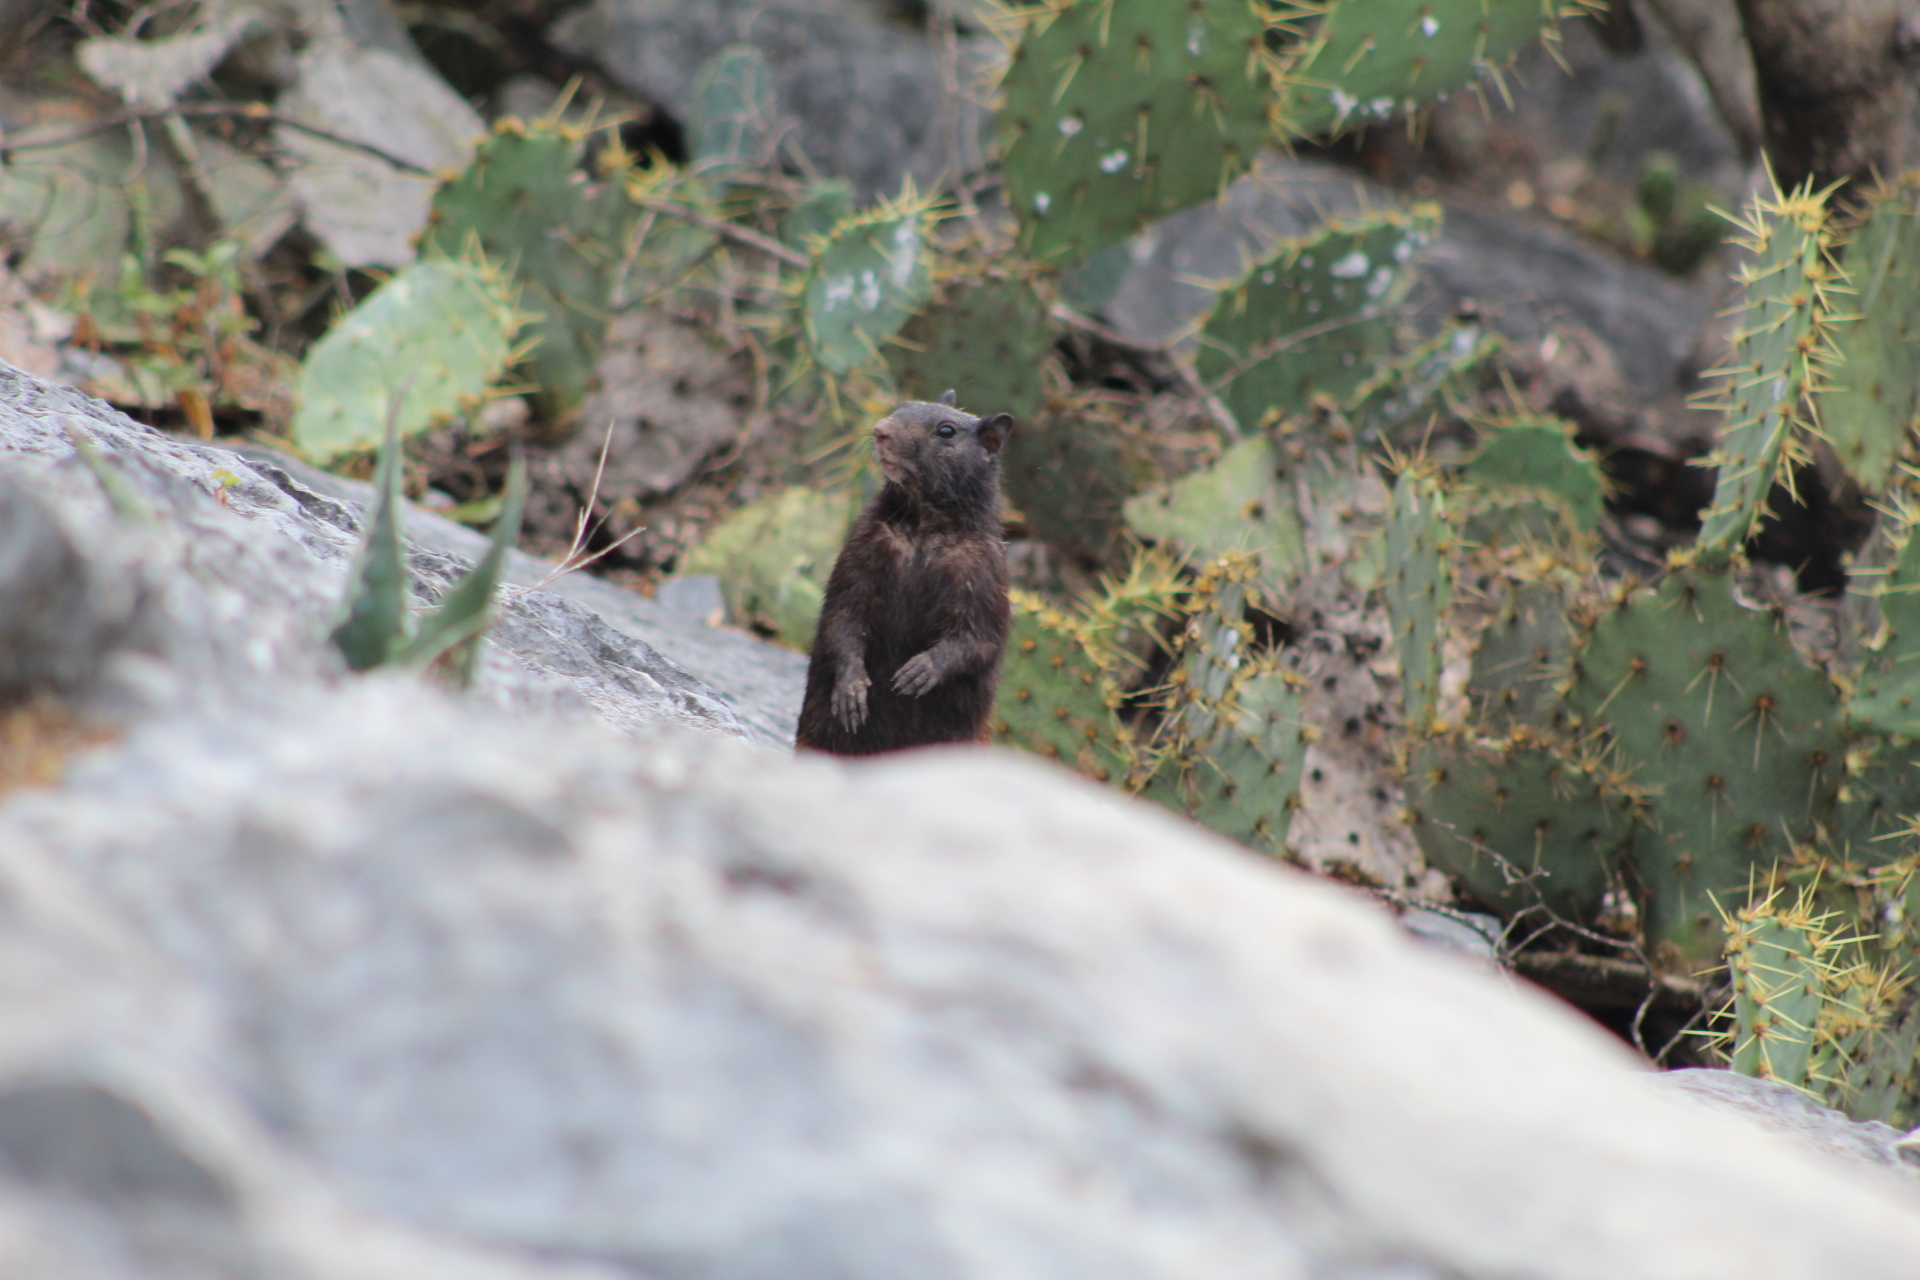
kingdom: Animalia
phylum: Chordata
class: Mammalia
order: Rodentia
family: Sciuridae
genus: Otospermophilus
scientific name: Otospermophilus variegatus
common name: Rock squirrel
